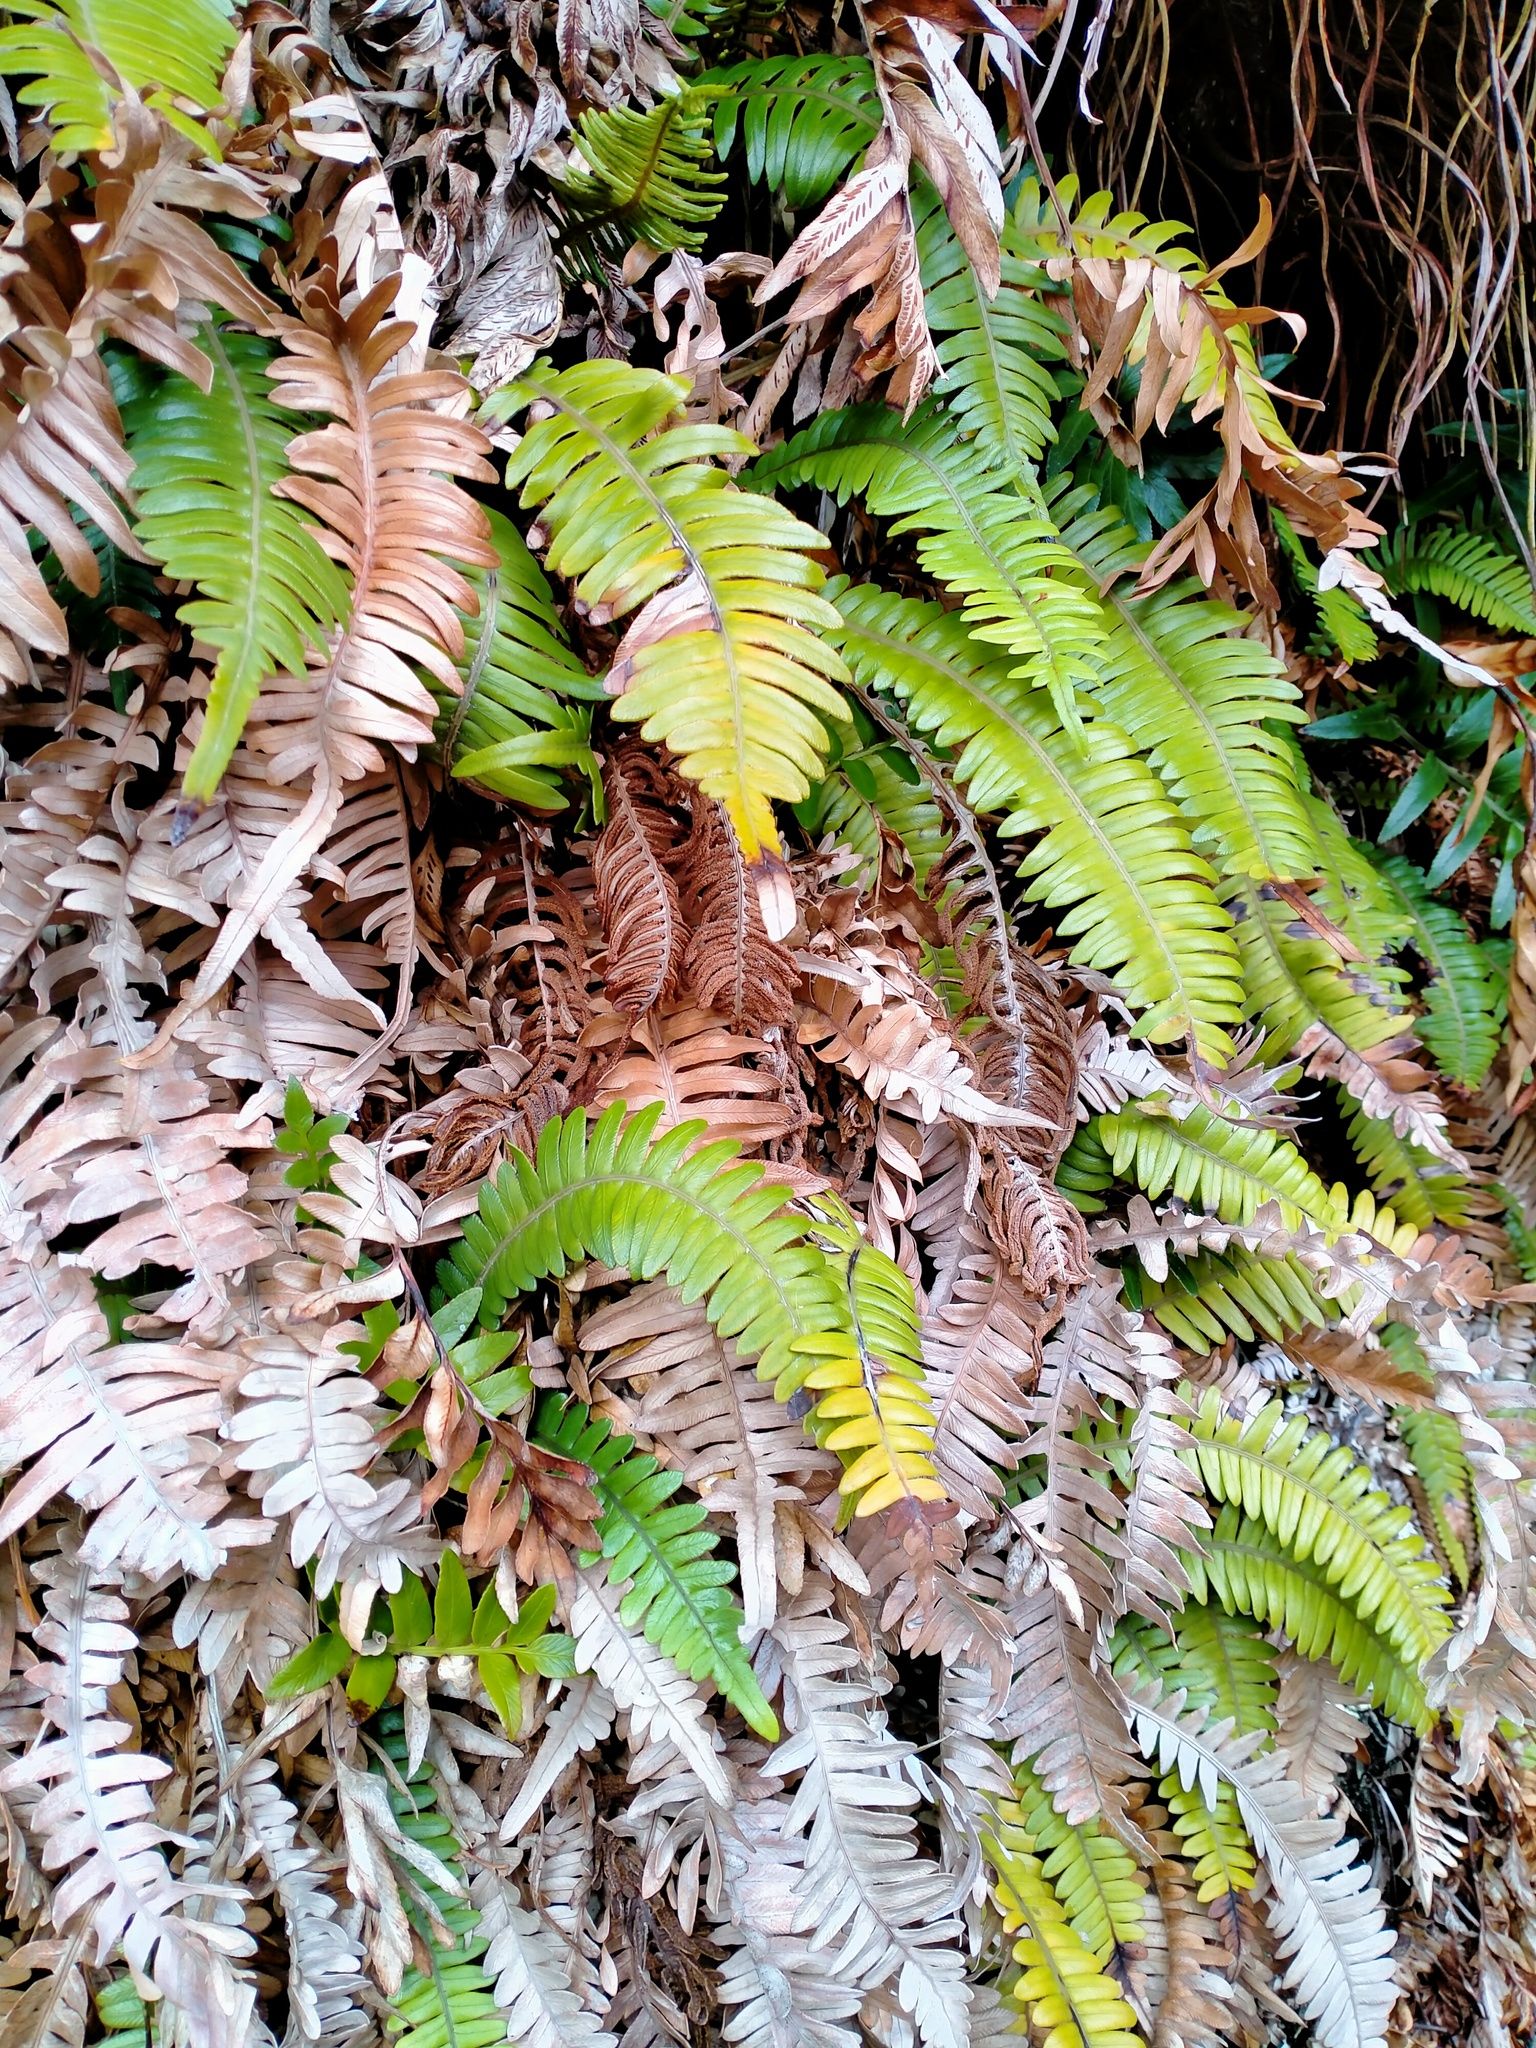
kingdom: Plantae
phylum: Tracheophyta
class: Polypodiopsida
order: Polypodiales
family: Blechnaceae
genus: Austroblechnum
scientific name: Austroblechnum durum
